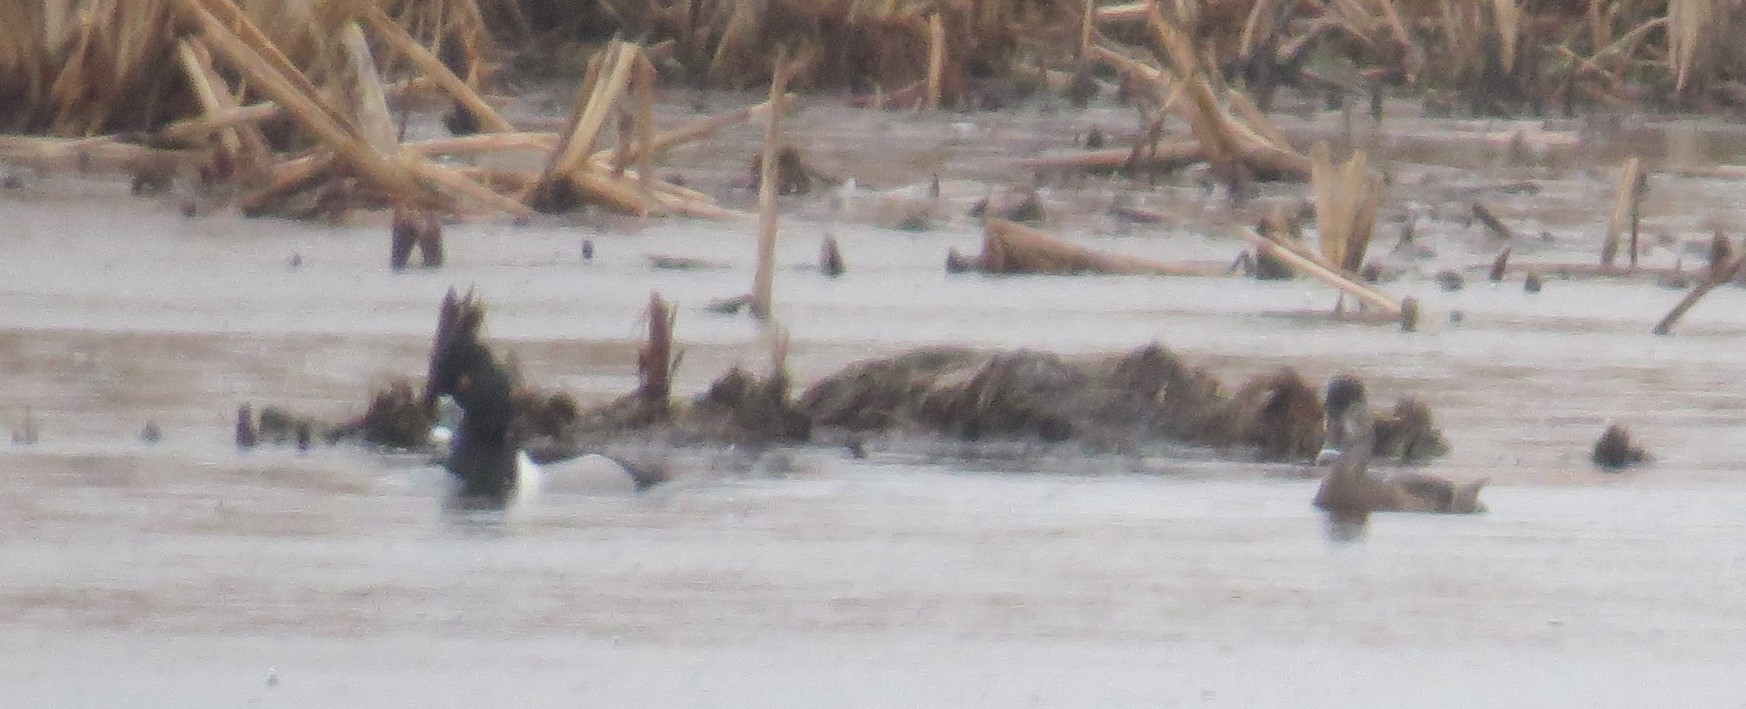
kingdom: Animalia
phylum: Chordata
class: Aves
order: Anseriformes
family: Anatidae
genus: Aythya
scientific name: Aythya collaris
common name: Ring-necked duck
